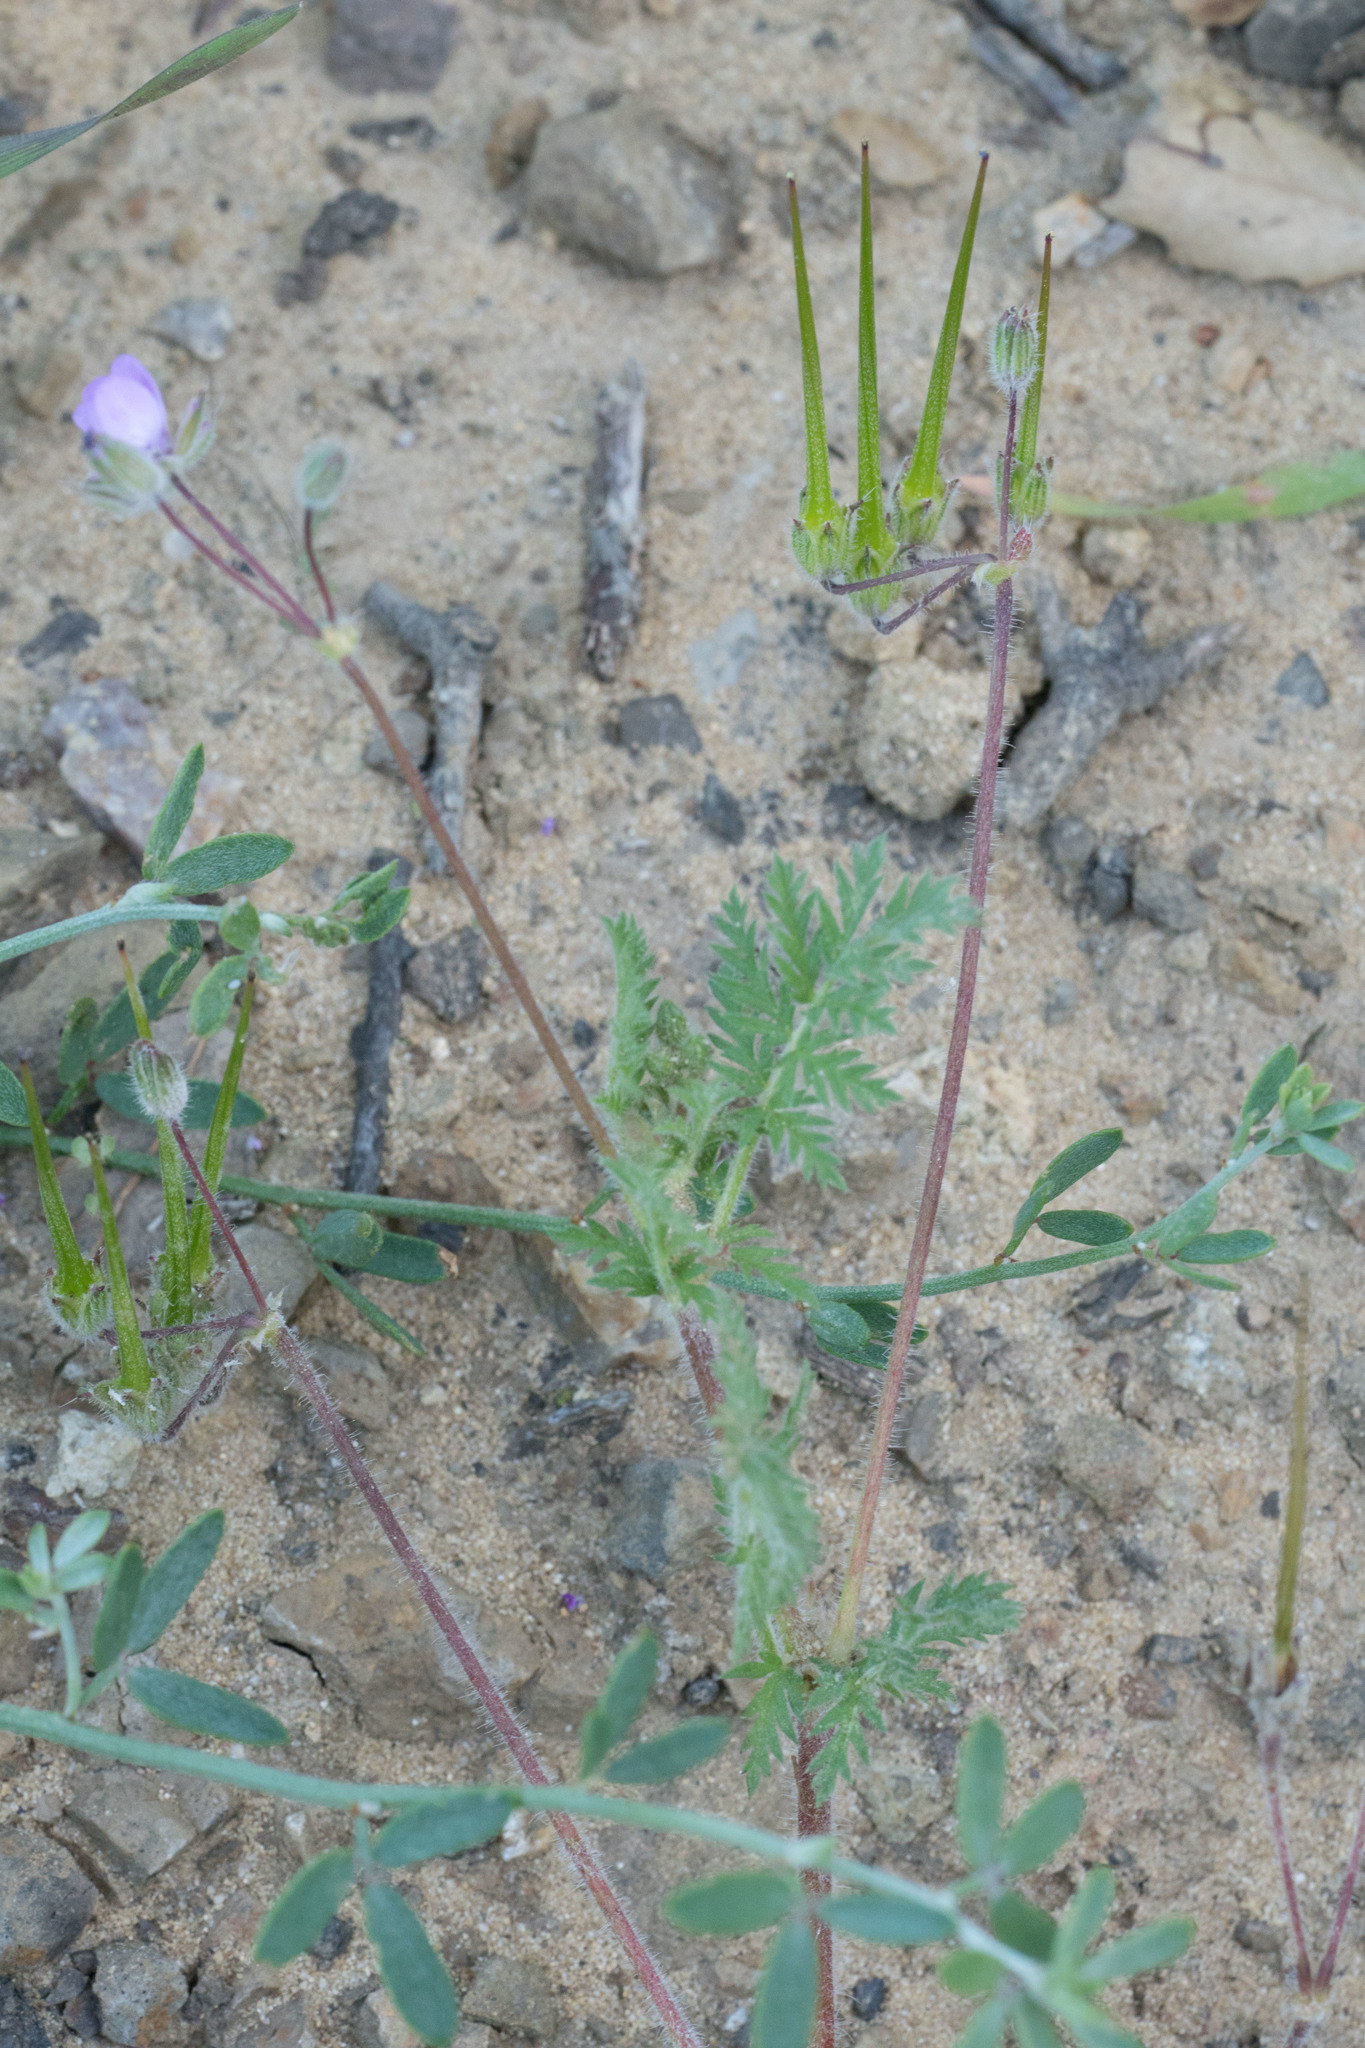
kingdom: Plantae
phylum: Tracheophyta
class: Magnoliopsida
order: Geraniales
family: Geraniaceae
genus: Erodium
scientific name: Erodium cicutarium
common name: Common stork's-bill
